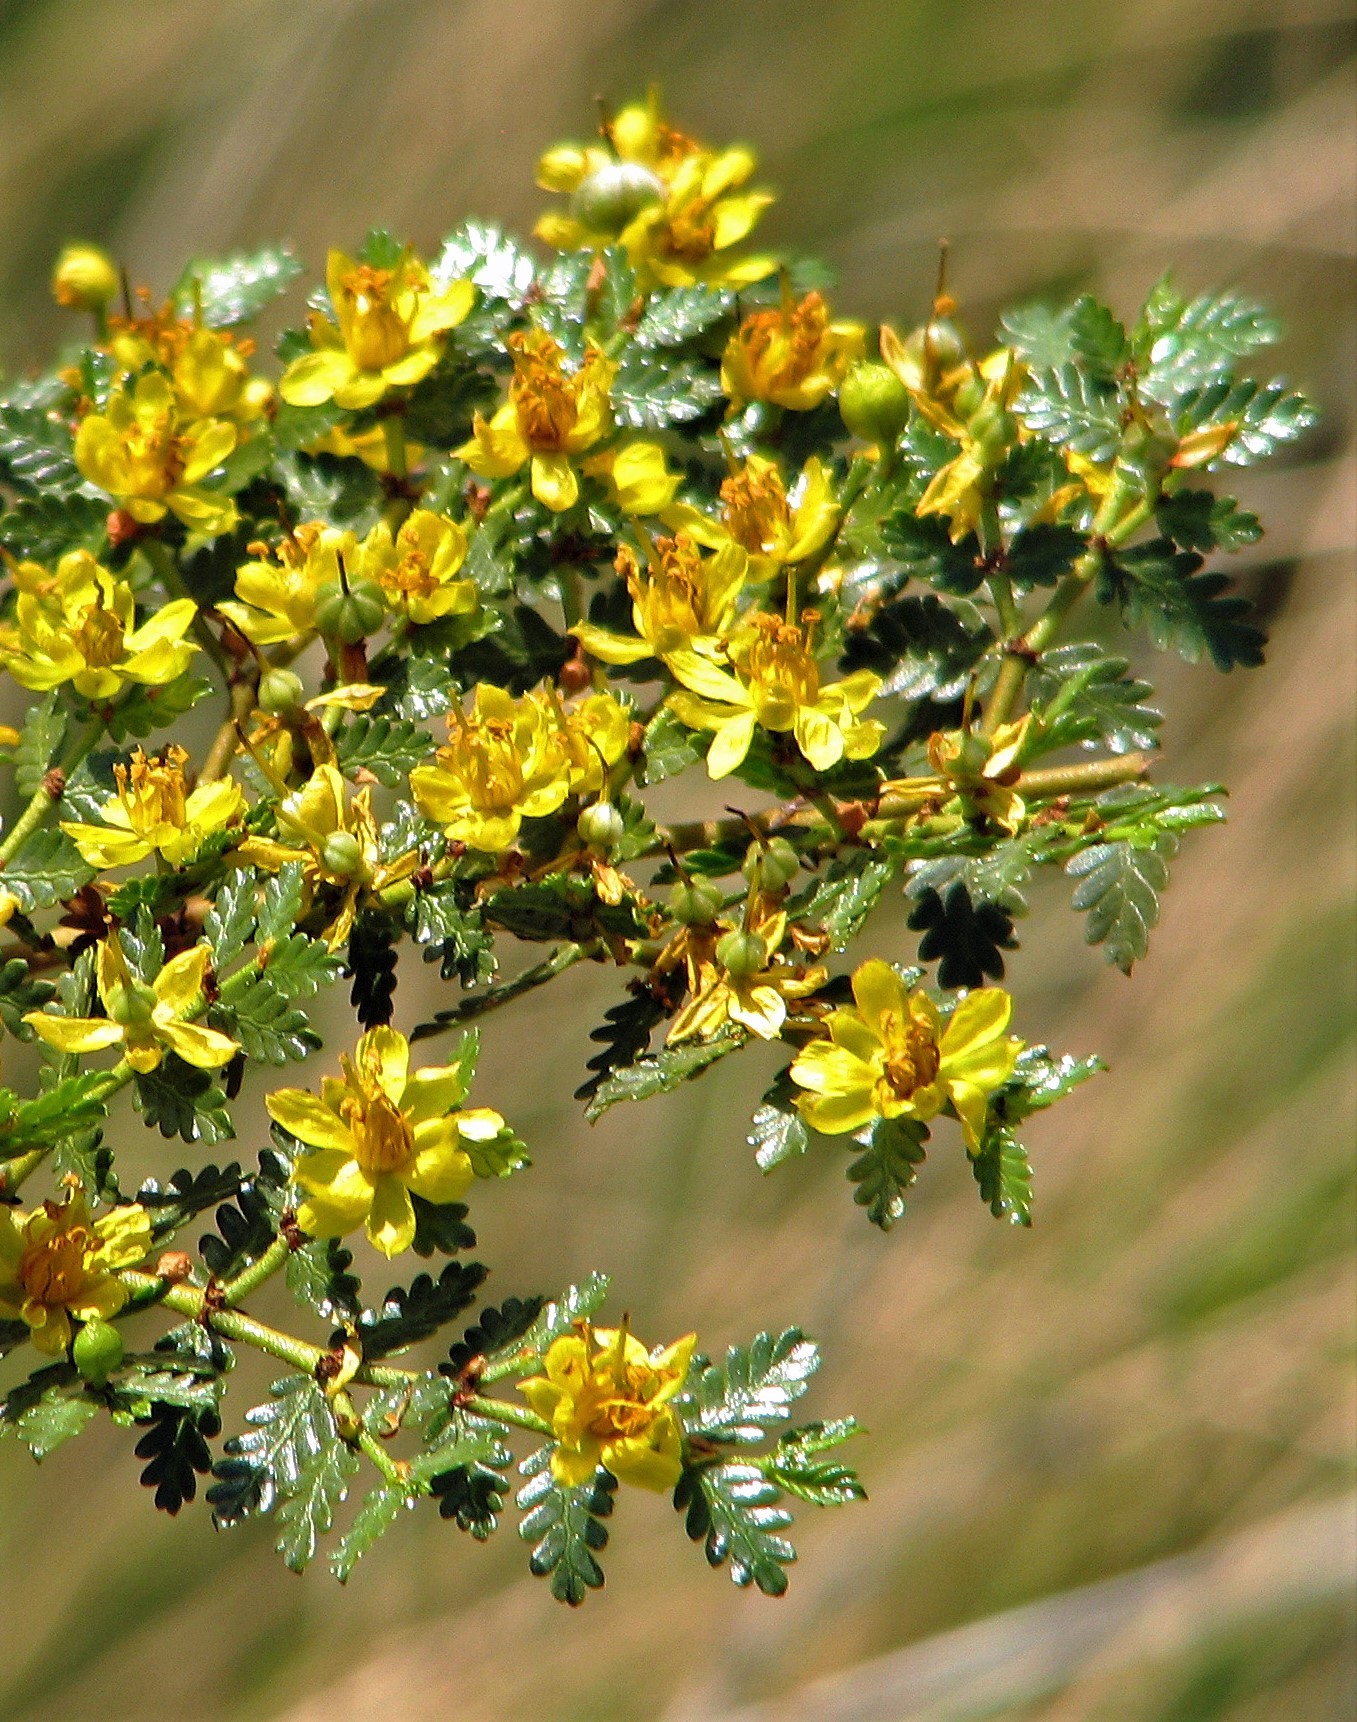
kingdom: Plantae
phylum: Tracheophyta
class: Magnoliopsida
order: Zygophyllales
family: Zygophyllaceae
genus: Larrea
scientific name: Larrea nitida
